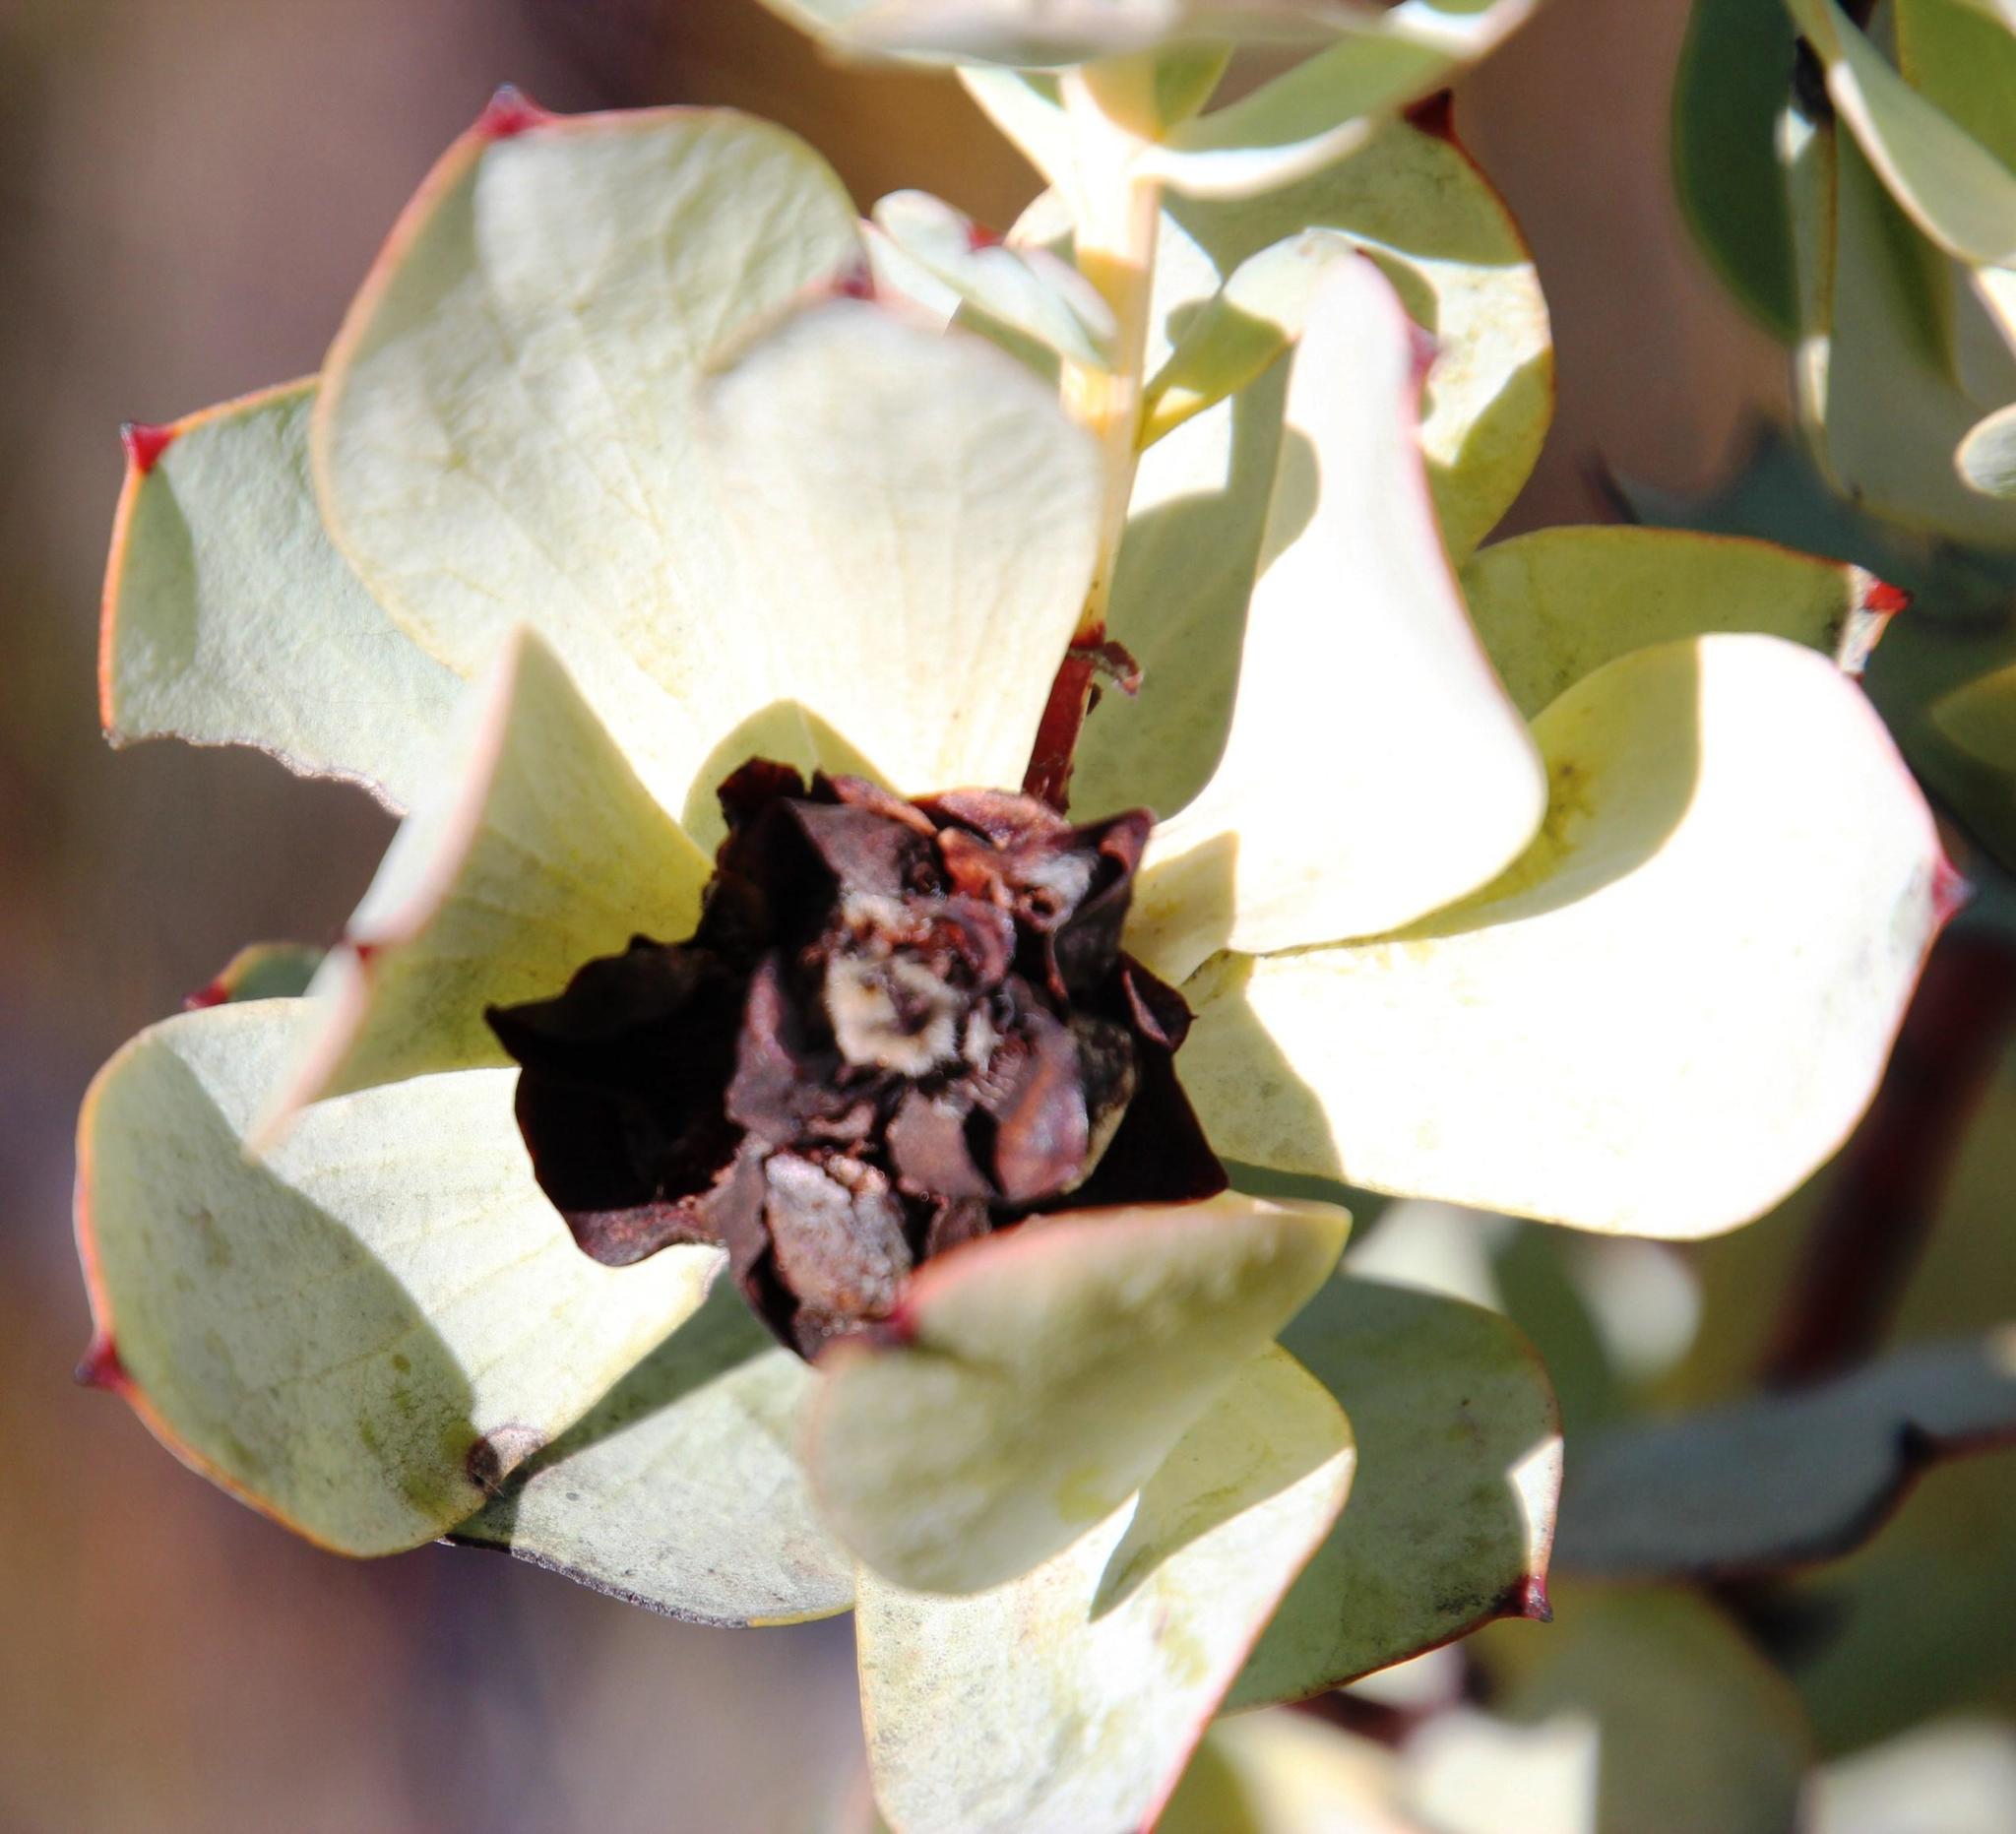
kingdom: Plantae
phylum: Tracheophyta
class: Magnoliopsida
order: Proteales
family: Proteaceae
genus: Leucadendron
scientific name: Leucadendron roodii
